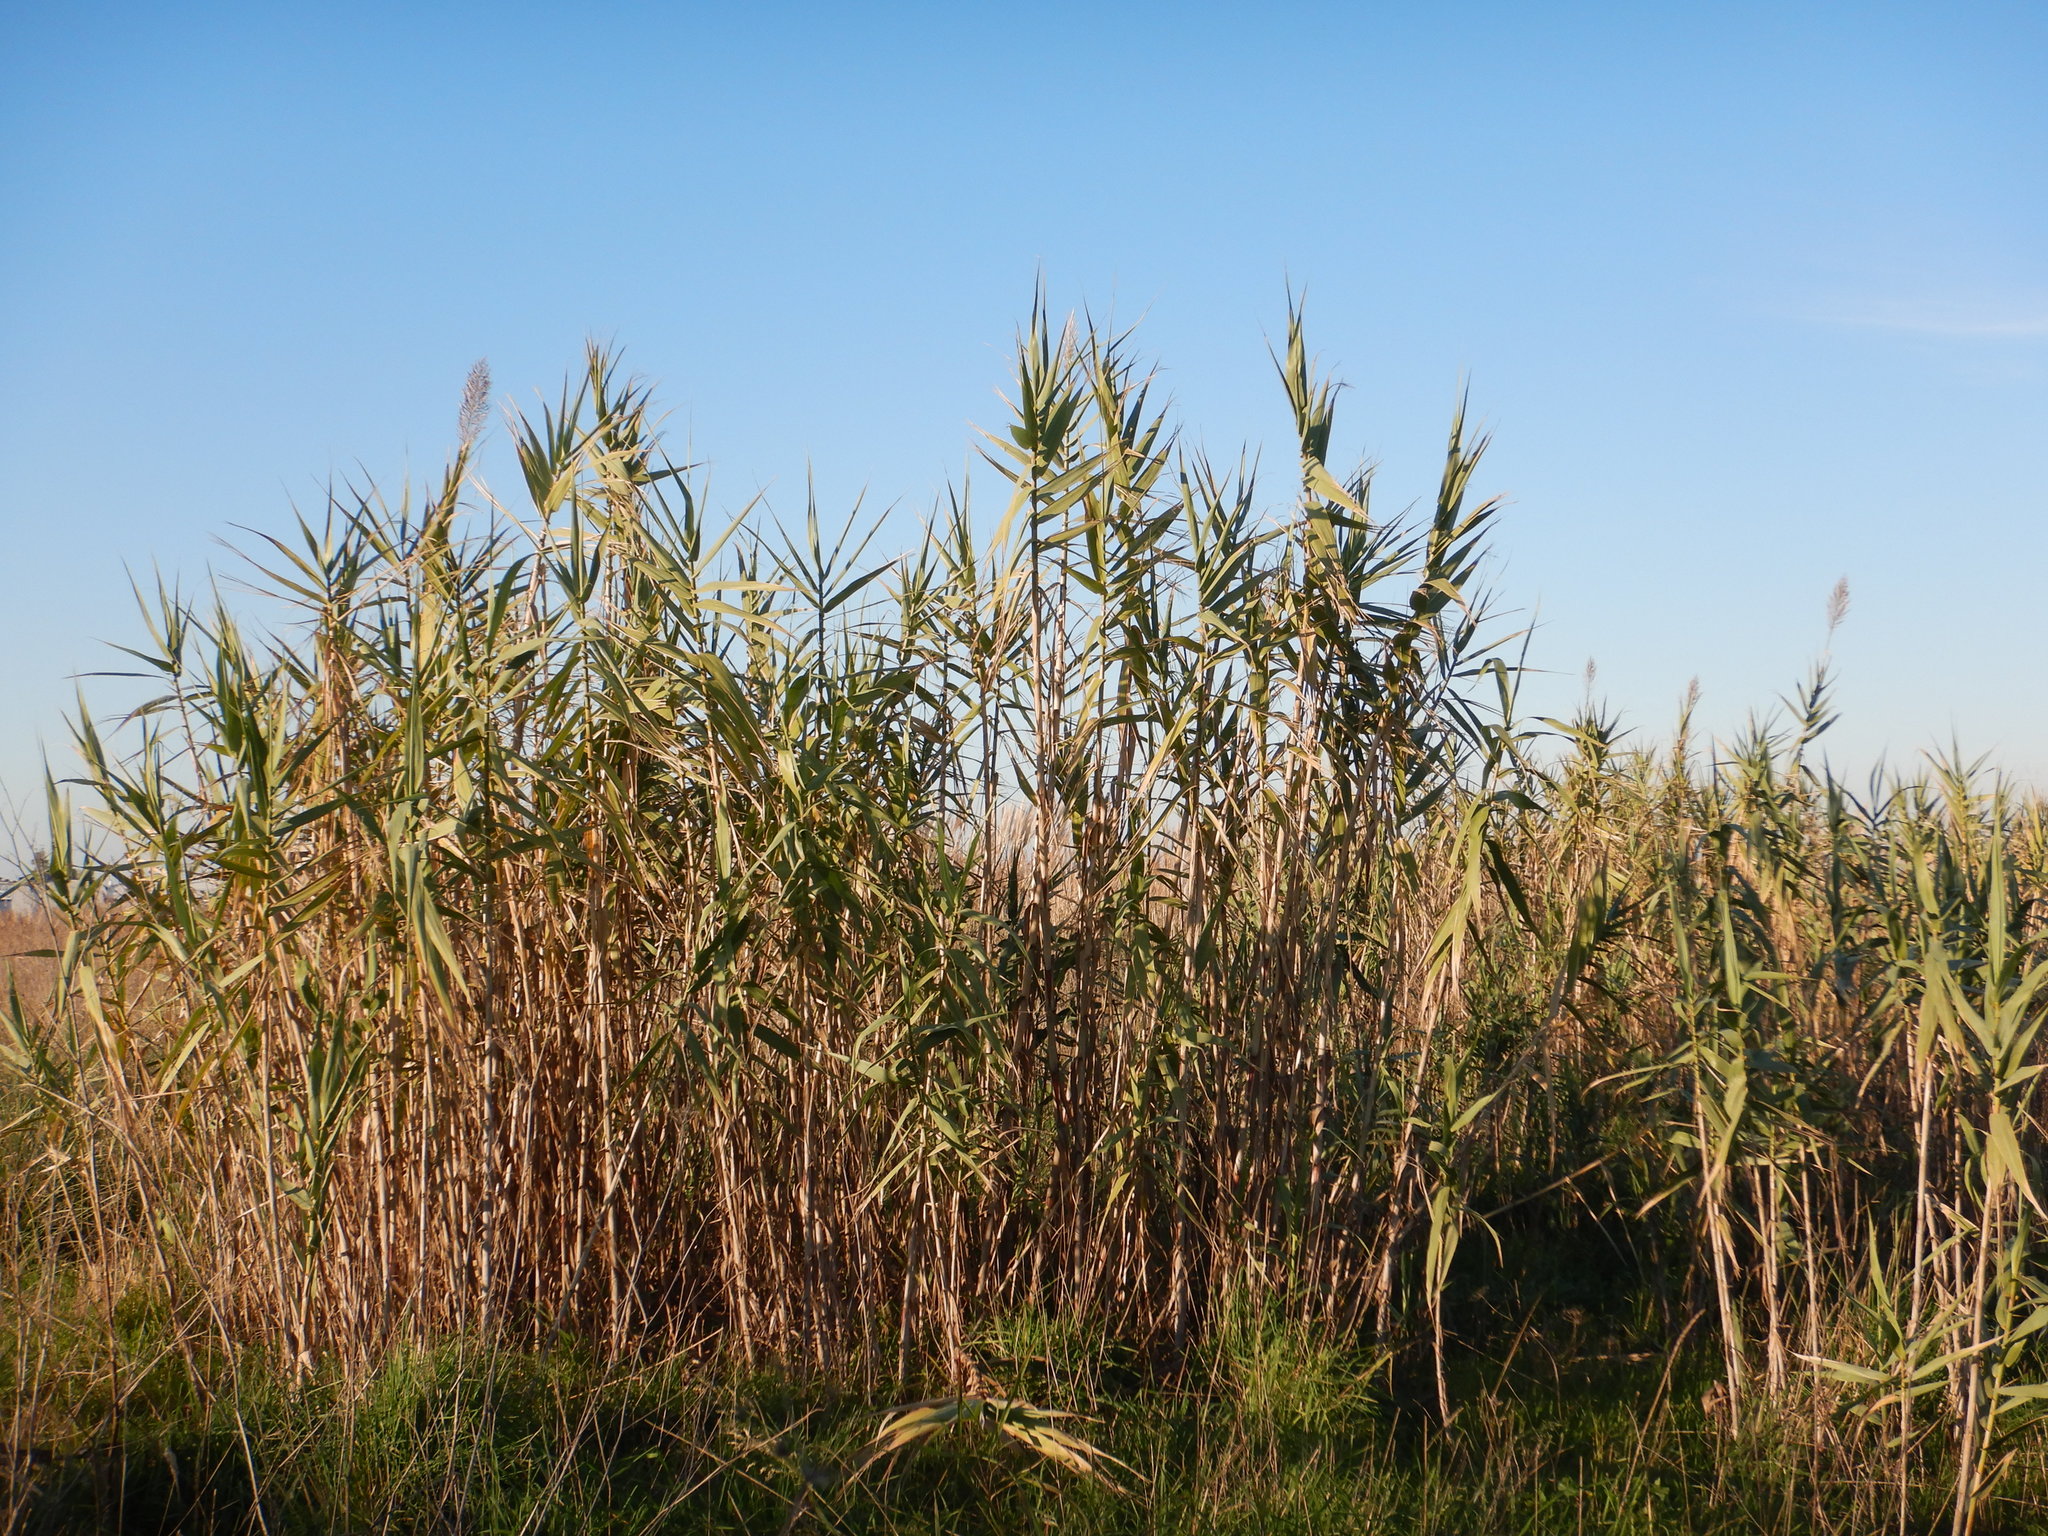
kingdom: Plantae
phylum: Tracheophyta
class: Liliopsida
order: Poales
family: Poaceae
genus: Arundo
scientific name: Arundo donax
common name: Giant reed
